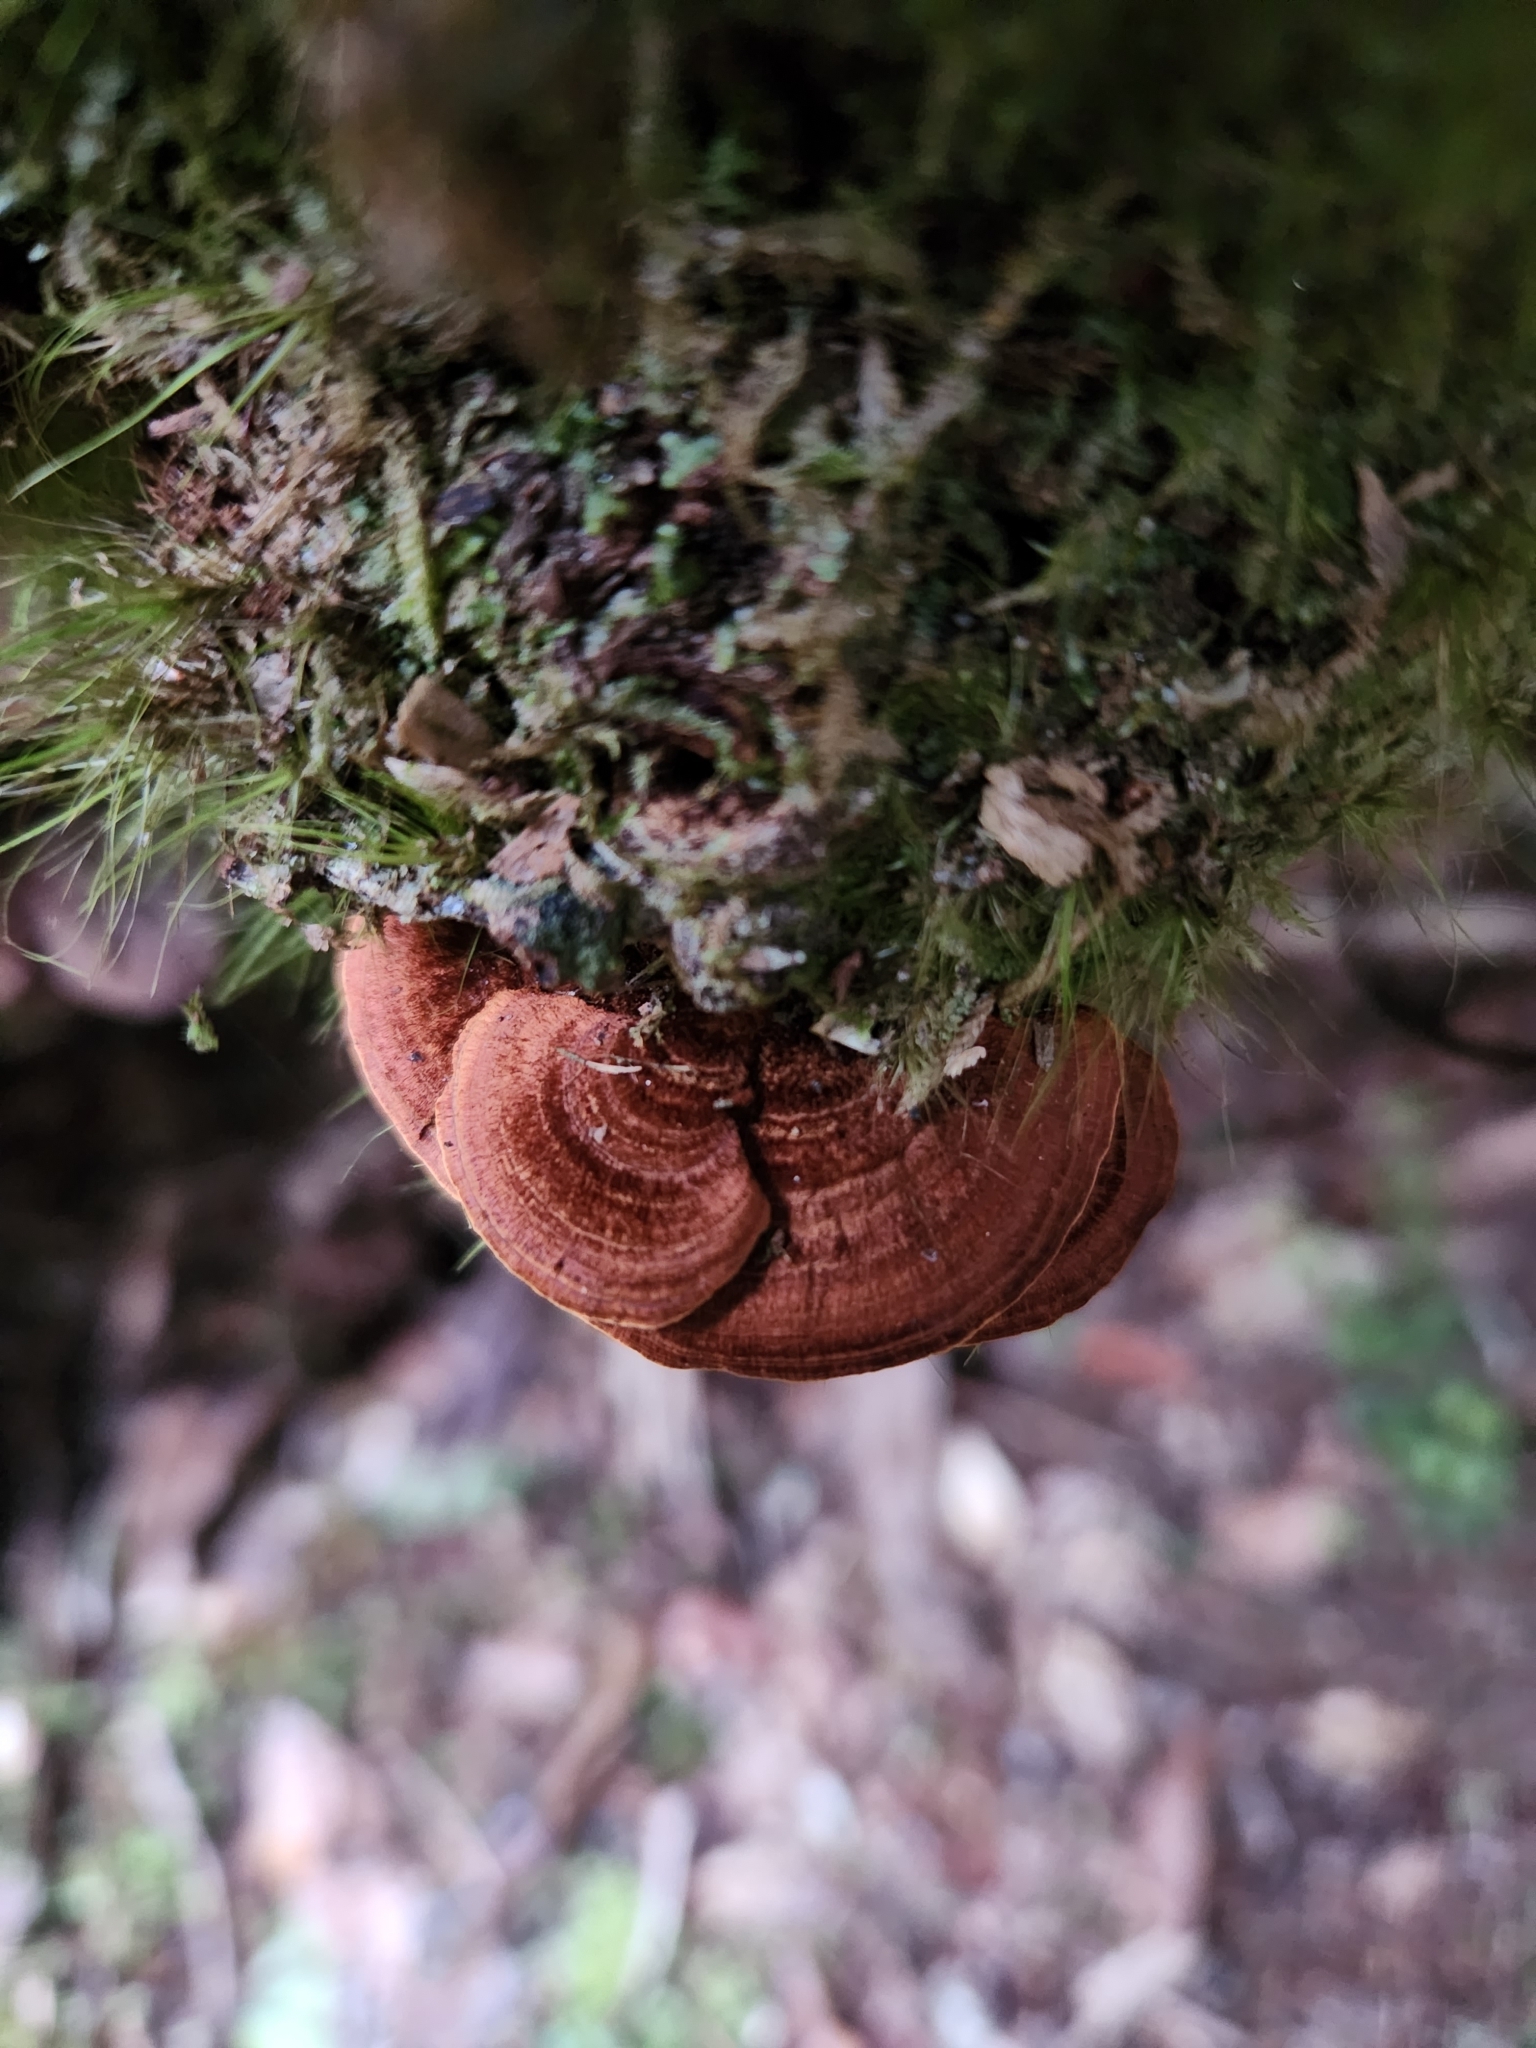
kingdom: Fungi
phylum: Basidiomycota
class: Agaricomycetes
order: Hymenochaetales
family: Hymenochaetaceae
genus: Hymenochaete
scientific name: Hymenochaete microcycla
